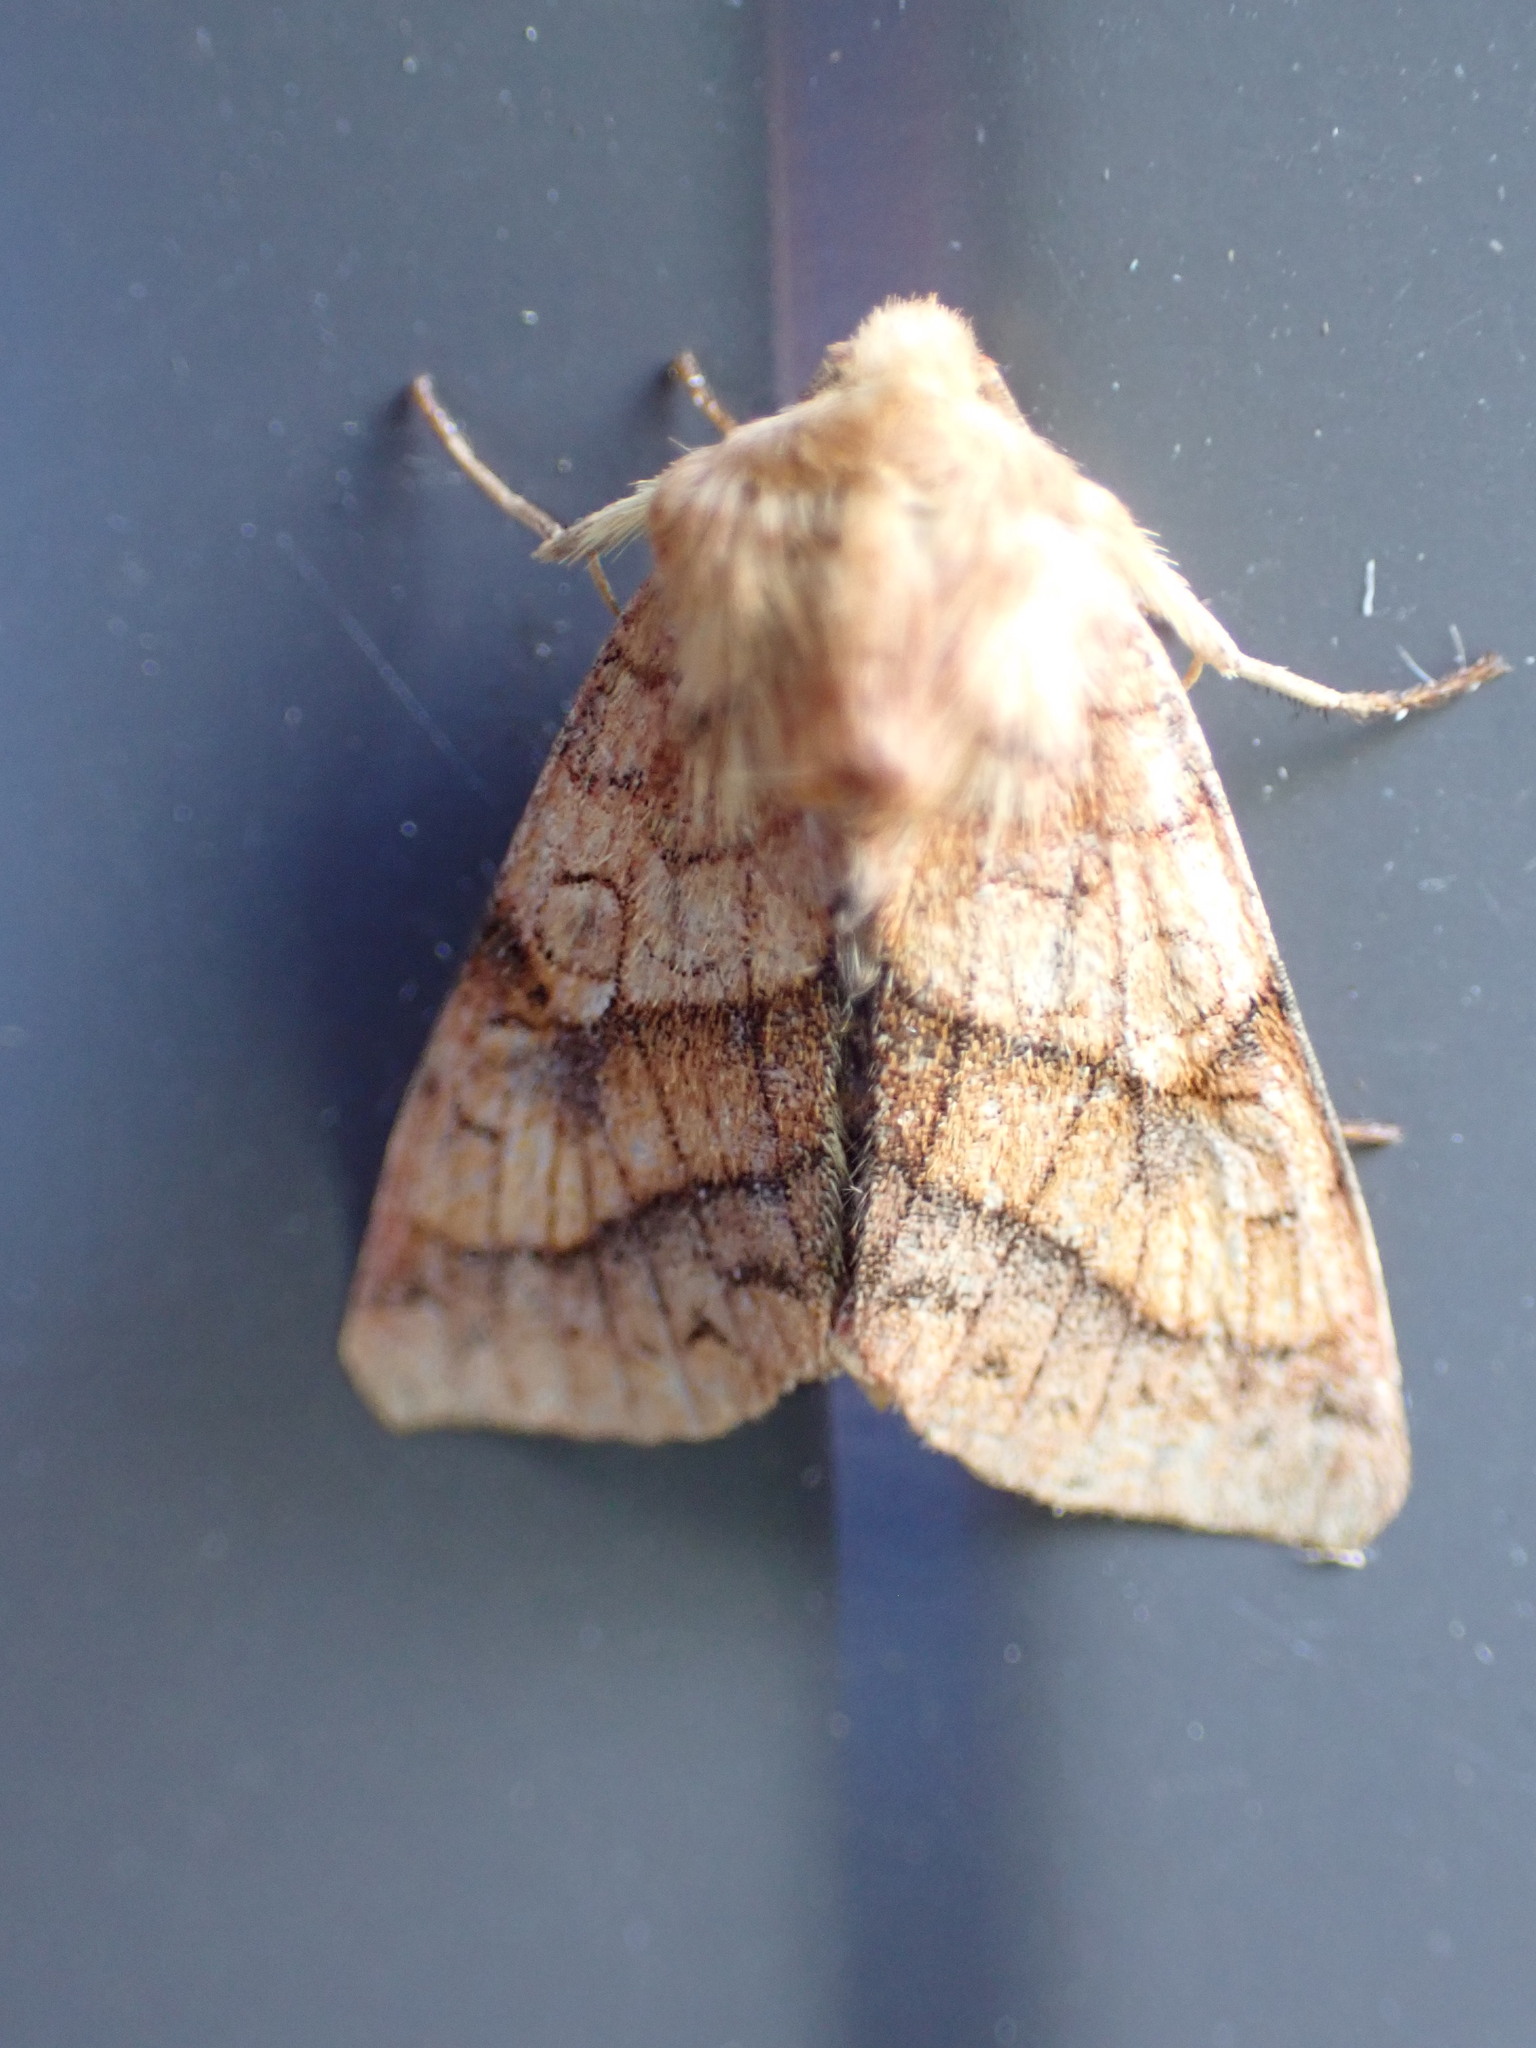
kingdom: Animalia
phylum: Arthropoda
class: Insecta
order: Lepidoptera
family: Noctuidae
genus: Pyrrhia
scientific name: Pyrrhia exprimens
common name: Purple-lined sallow
